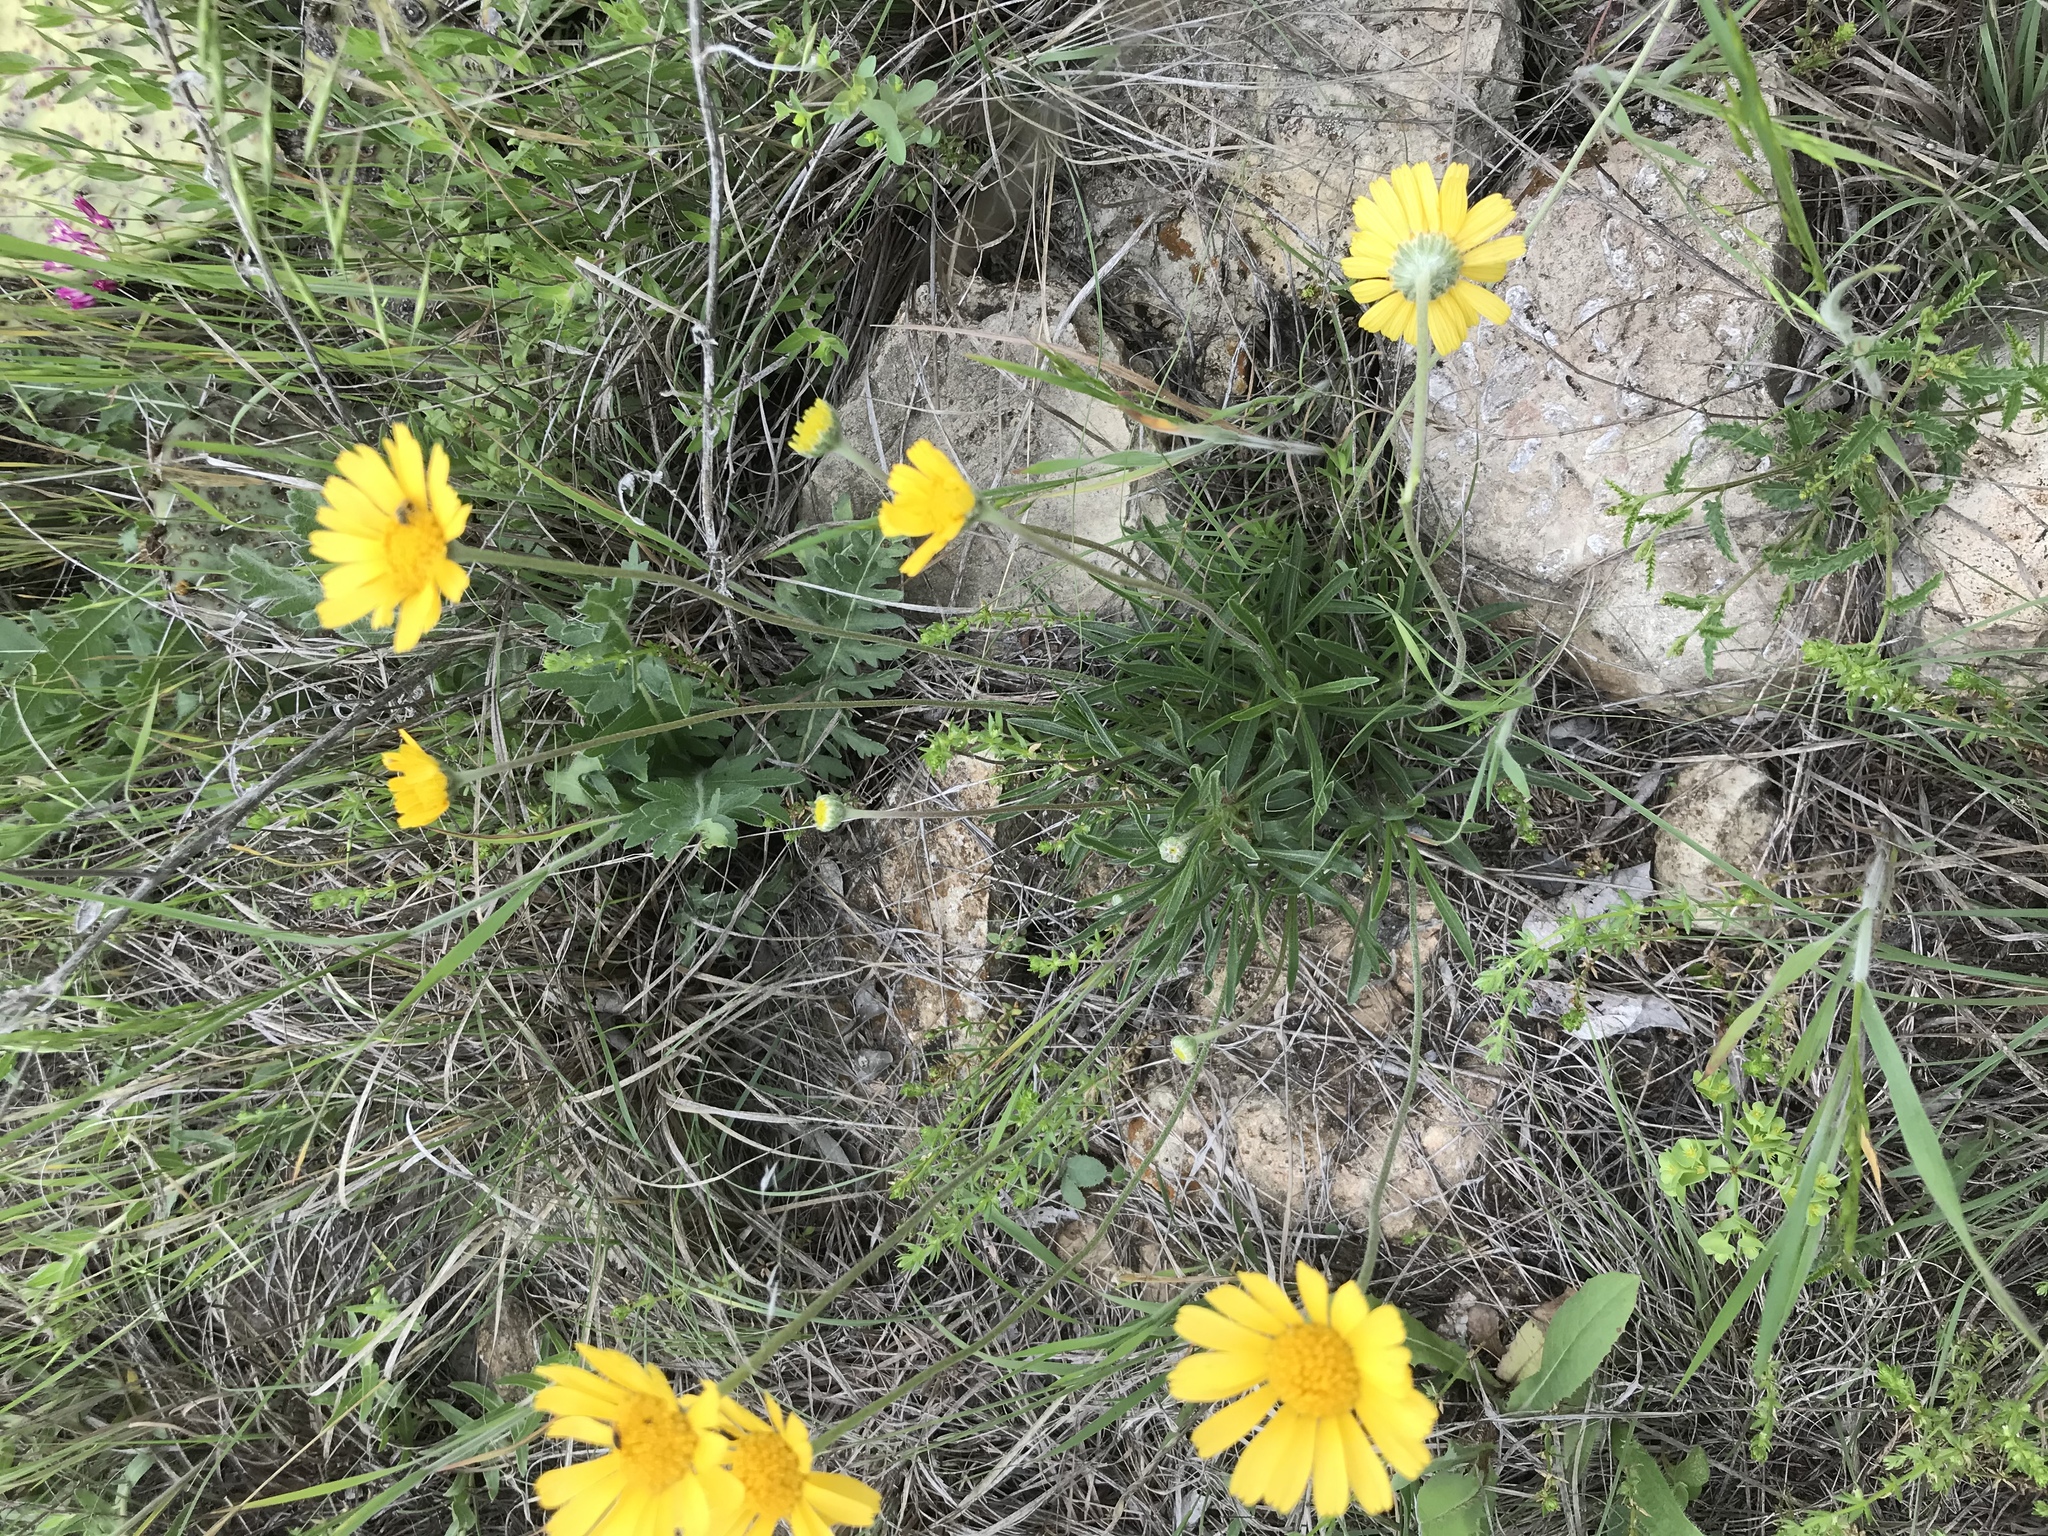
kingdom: Plantae
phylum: Tracheophyta
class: Magnoliopsida
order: Asterales
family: Asteraceae
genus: Tetraneuris
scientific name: Tetraneuris scaposa
